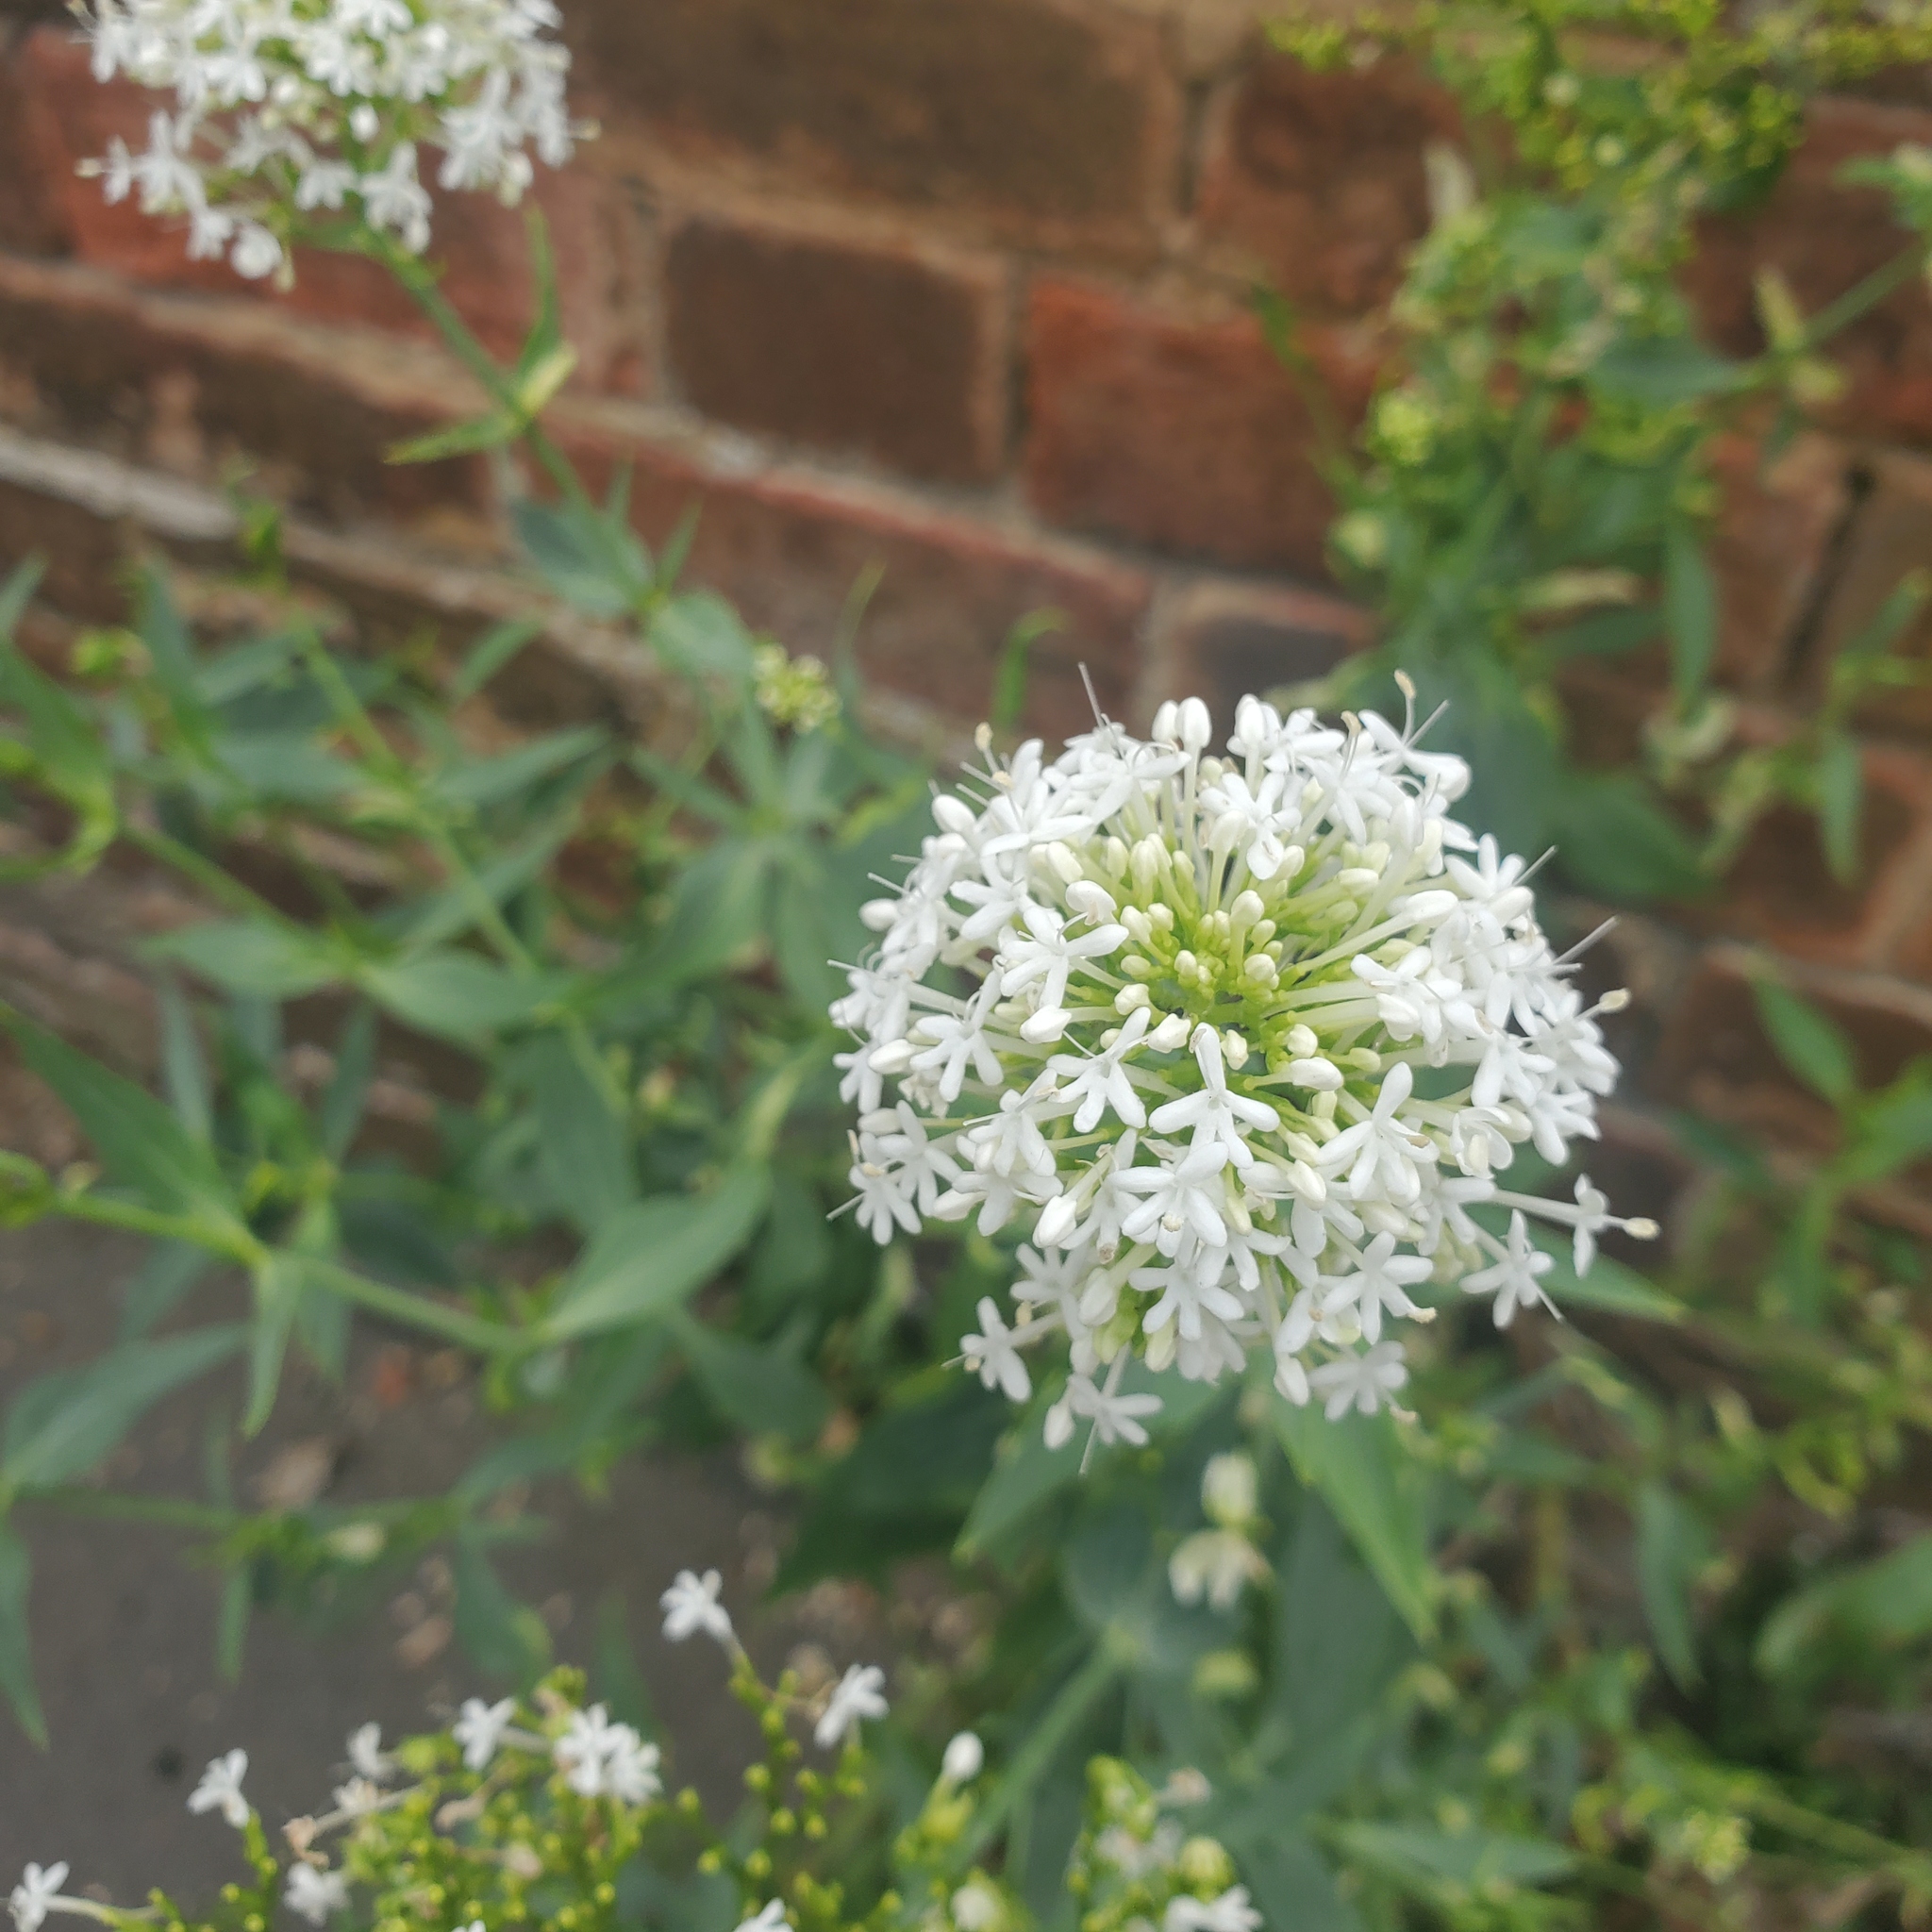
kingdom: Plantae
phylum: Tracheophyta
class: Magnoliopsida
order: Dipsacales
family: Caprifoliaceae
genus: Centranthus
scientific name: Centranthus ruber
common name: Red valerian
